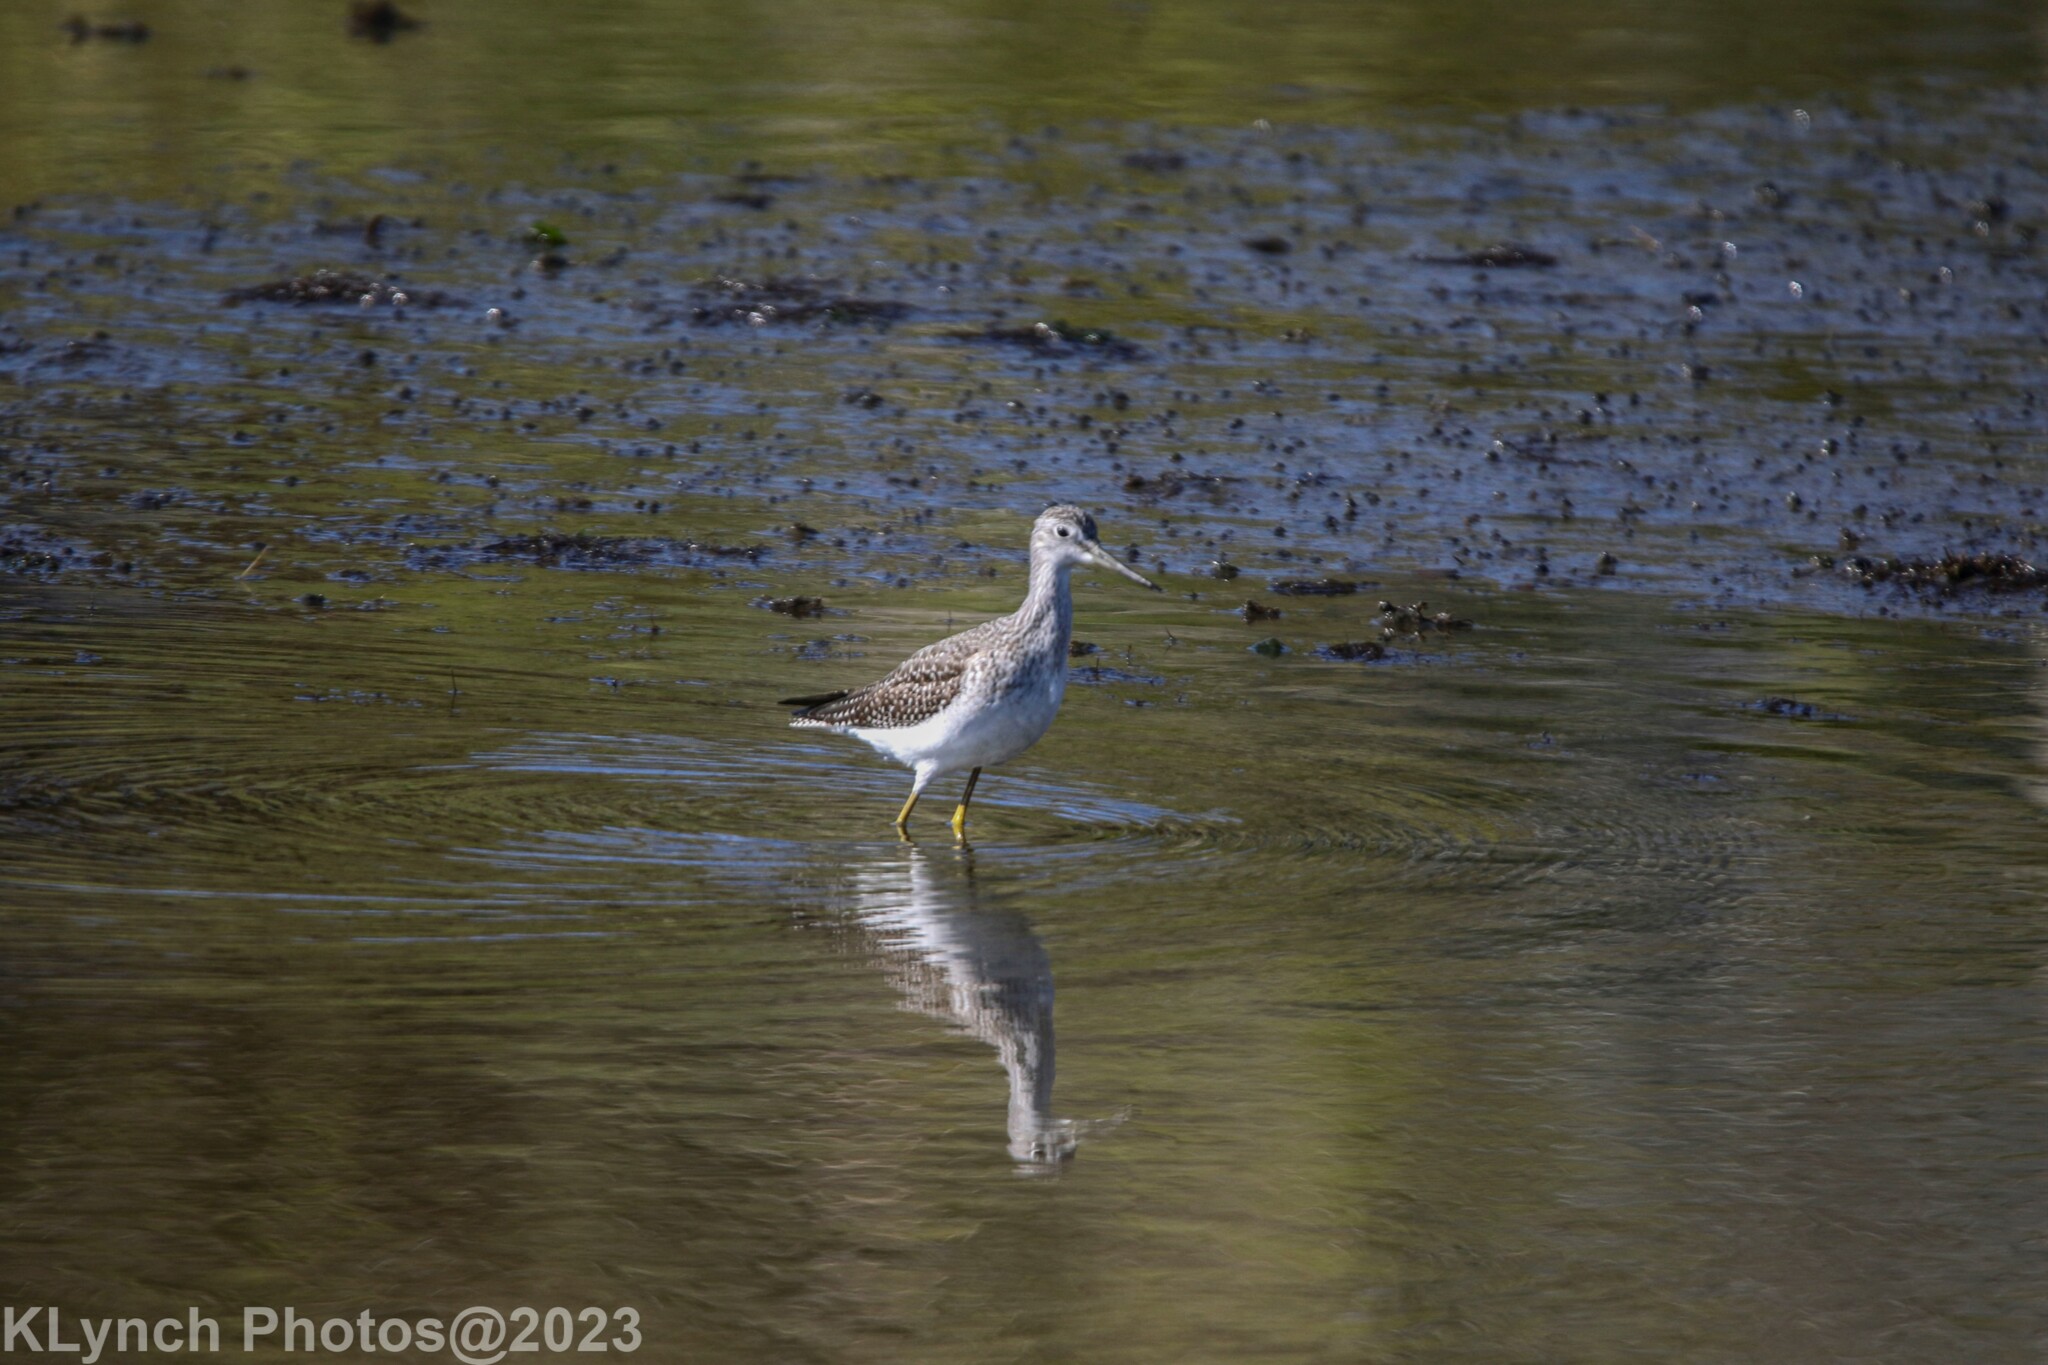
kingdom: Animalia
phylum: Chordata
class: Aves
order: Charadriiformes
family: Scolopacidae
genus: Tringa
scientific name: Tringa melanoleuca
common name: Greater yellowlegs
